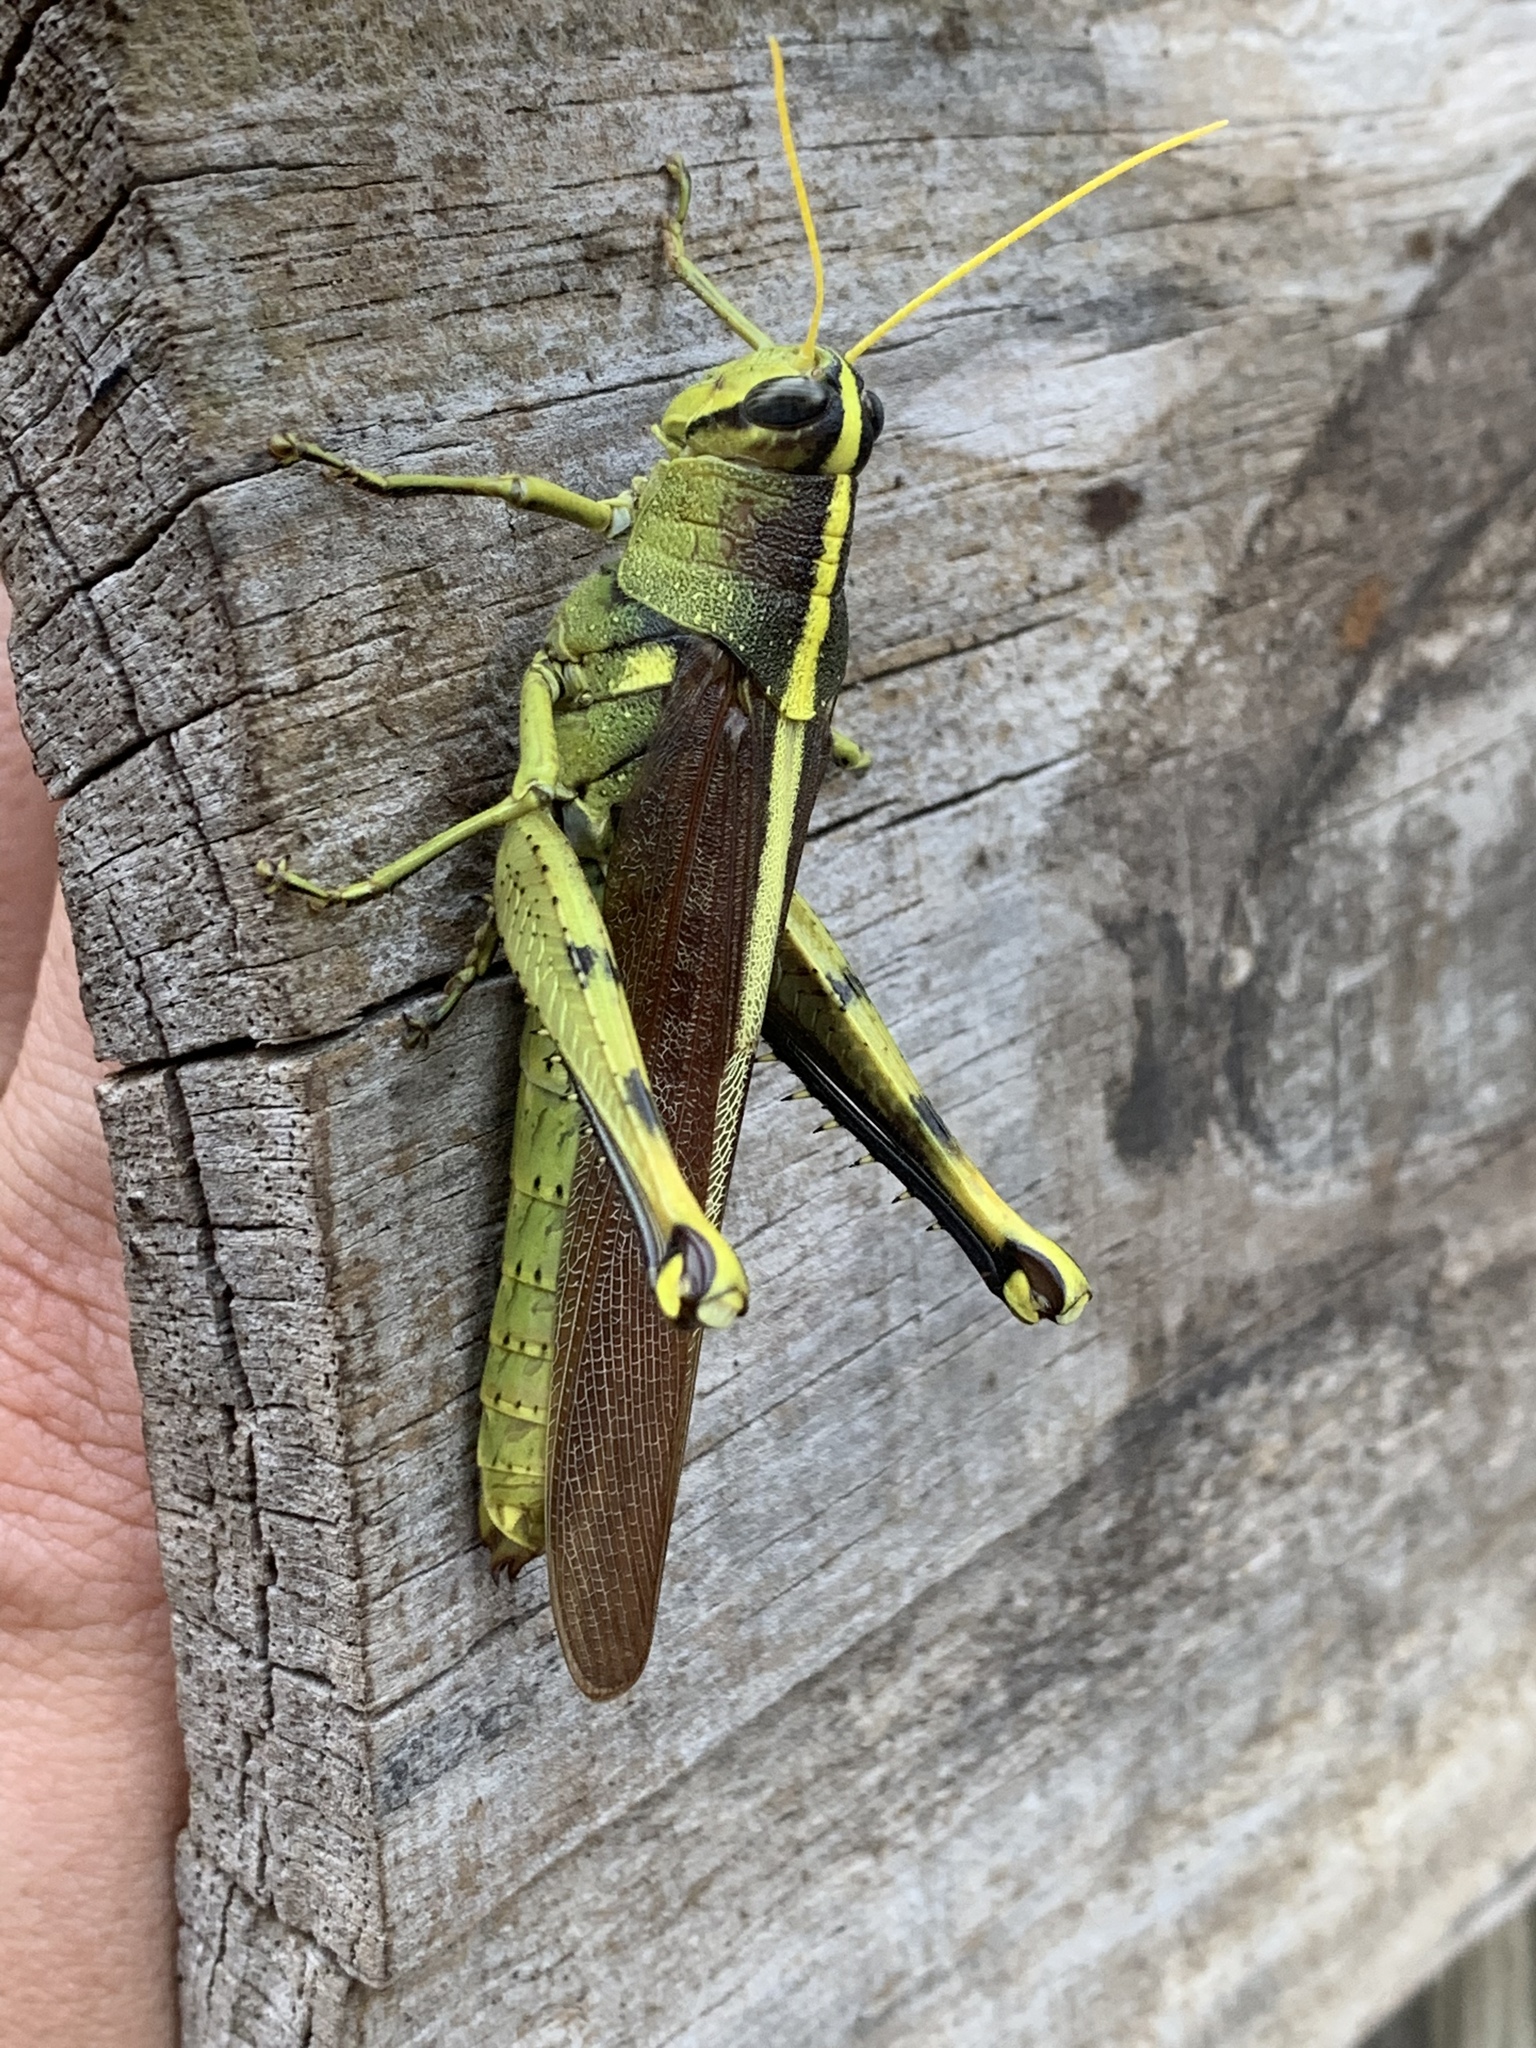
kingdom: Animalia
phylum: Arthropoda
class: Insecta
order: Orthoptera
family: Acrididae
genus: Schistocerca
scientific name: Schistocerca obscura
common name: Obscure bird grasshopper
